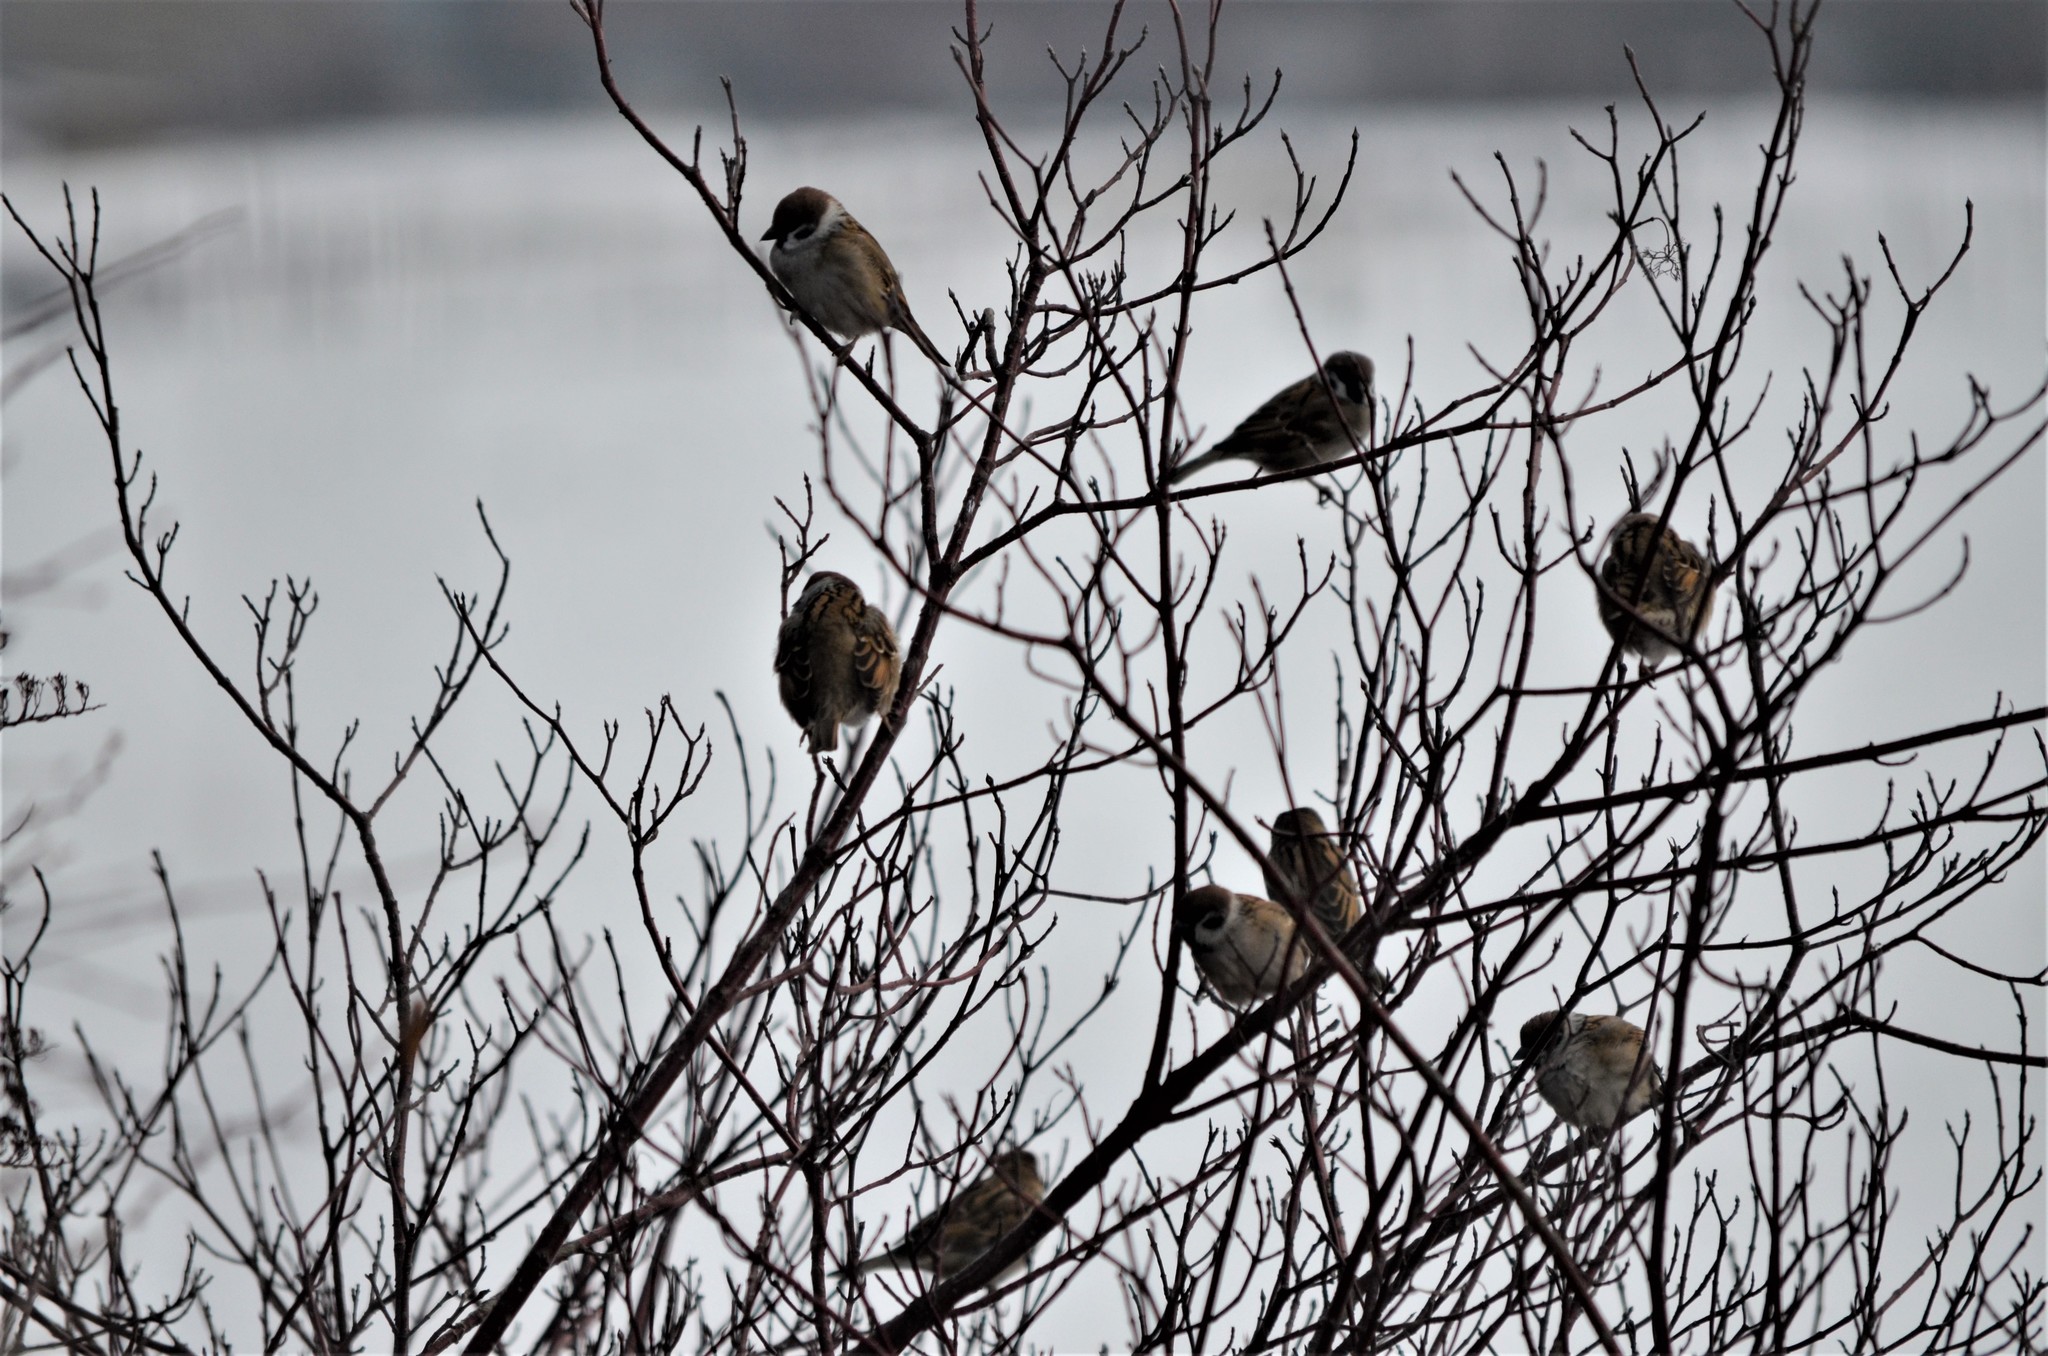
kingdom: Animalia
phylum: Chordata
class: Aves
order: Passeriformes
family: Passeridae
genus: Passer
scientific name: Passer montanus
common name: Eurasian tree sparrow
